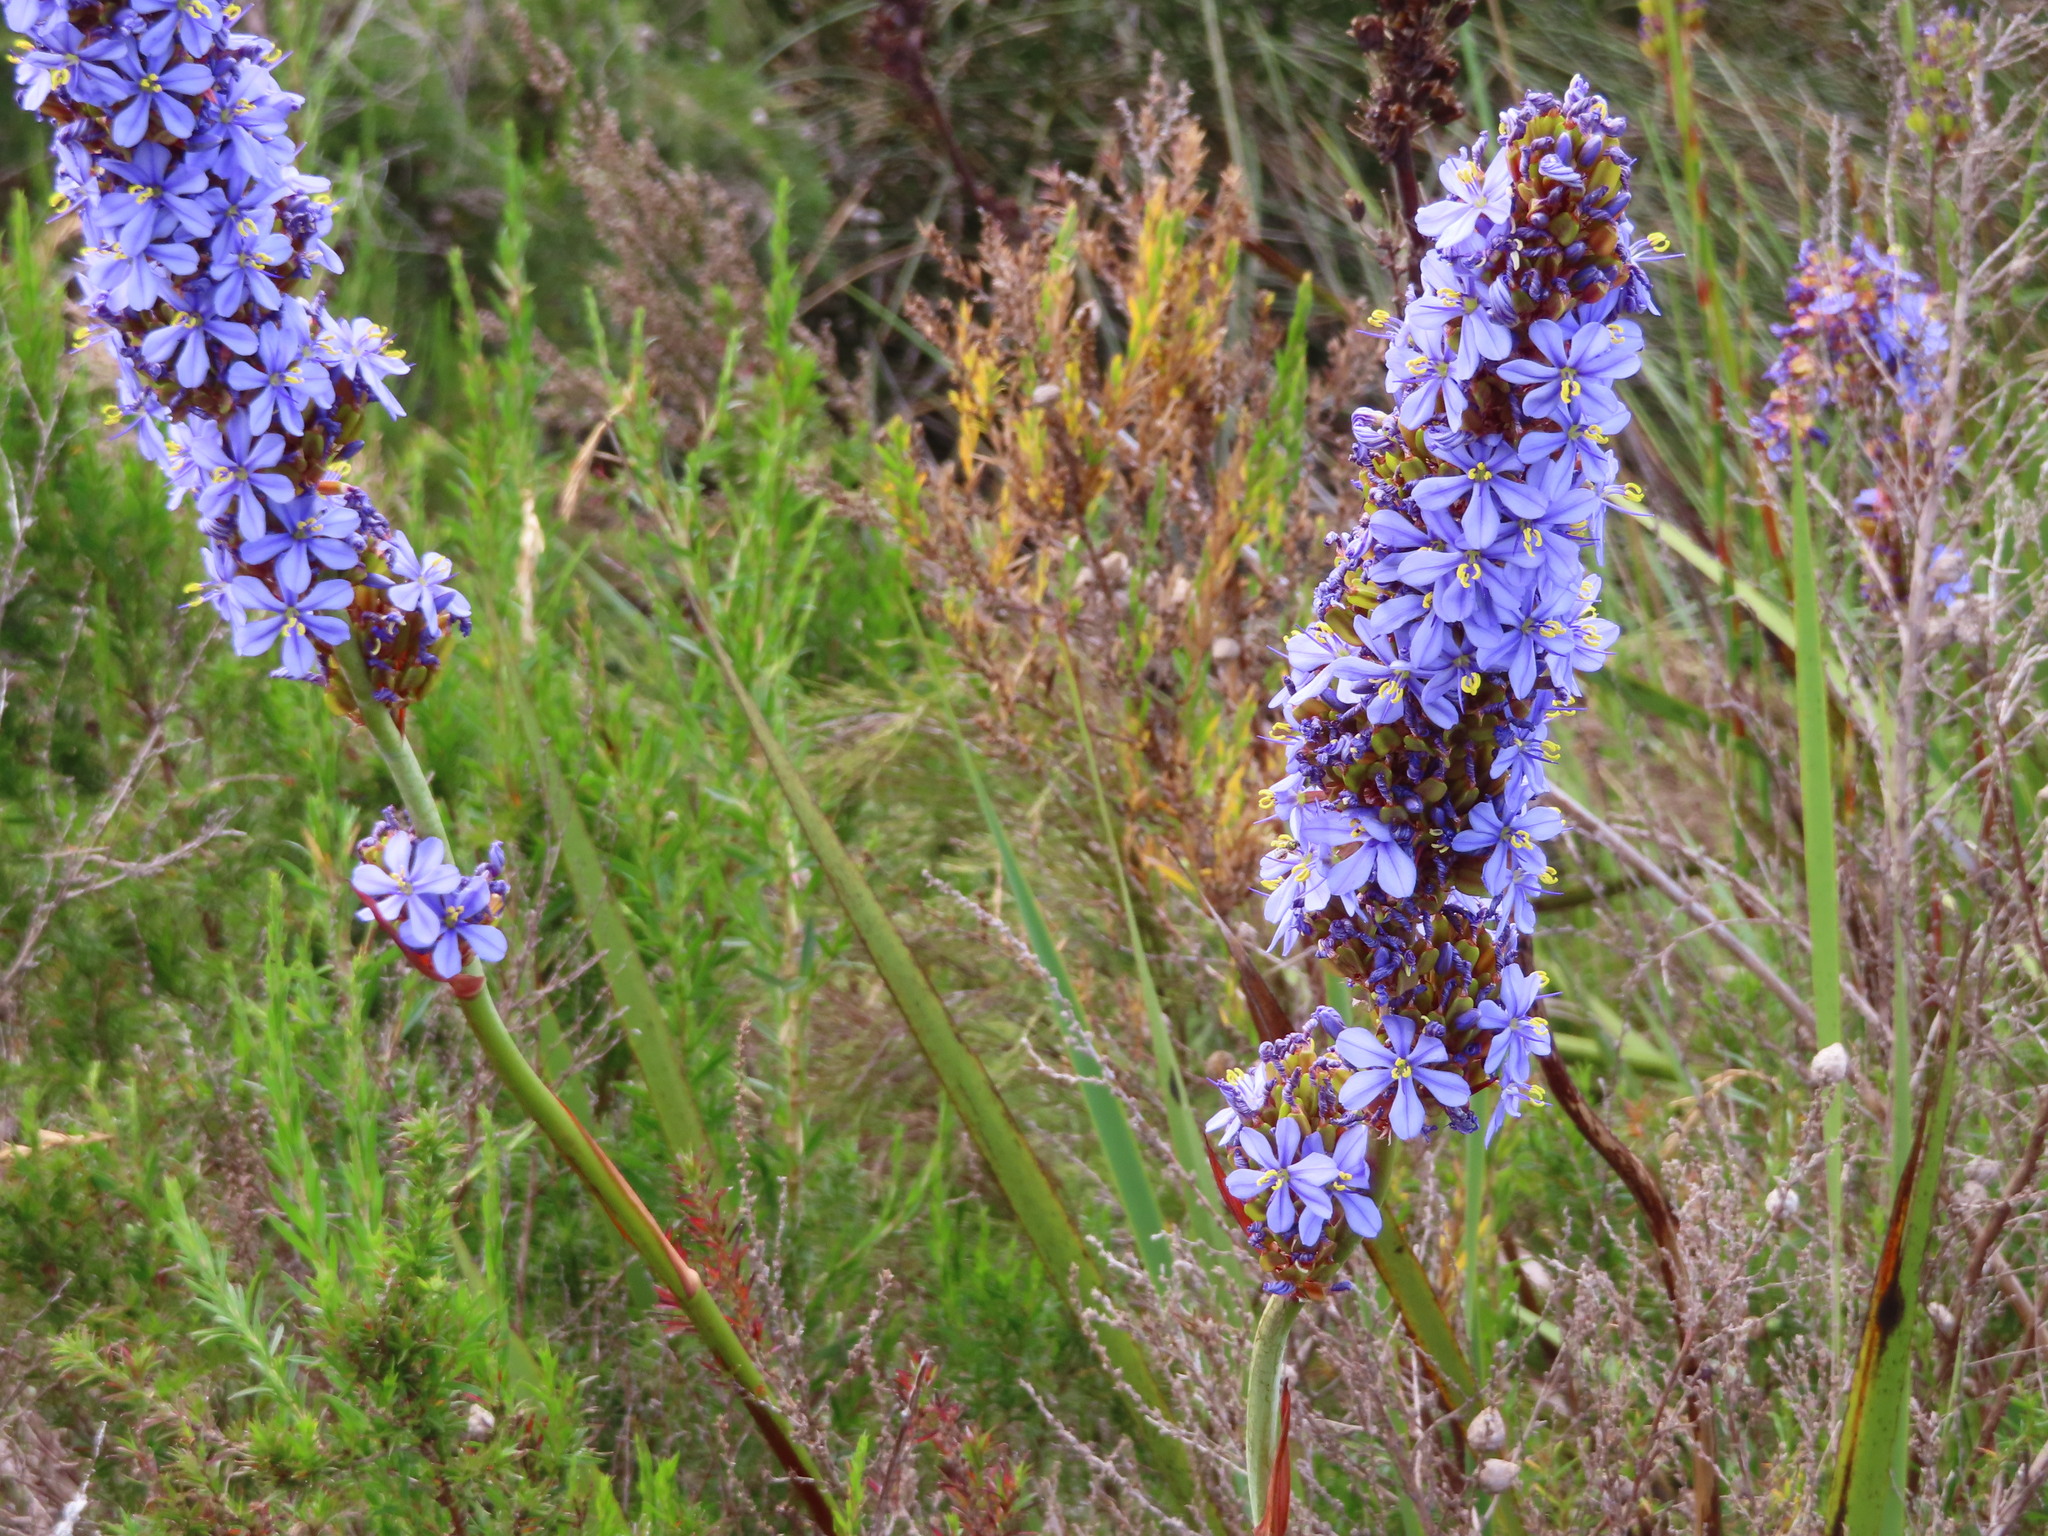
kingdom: Plantae
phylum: Tracheophyta
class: Liliopsida
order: Asparagales
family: Iridaceae
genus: Aristea
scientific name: Aristea capitata
